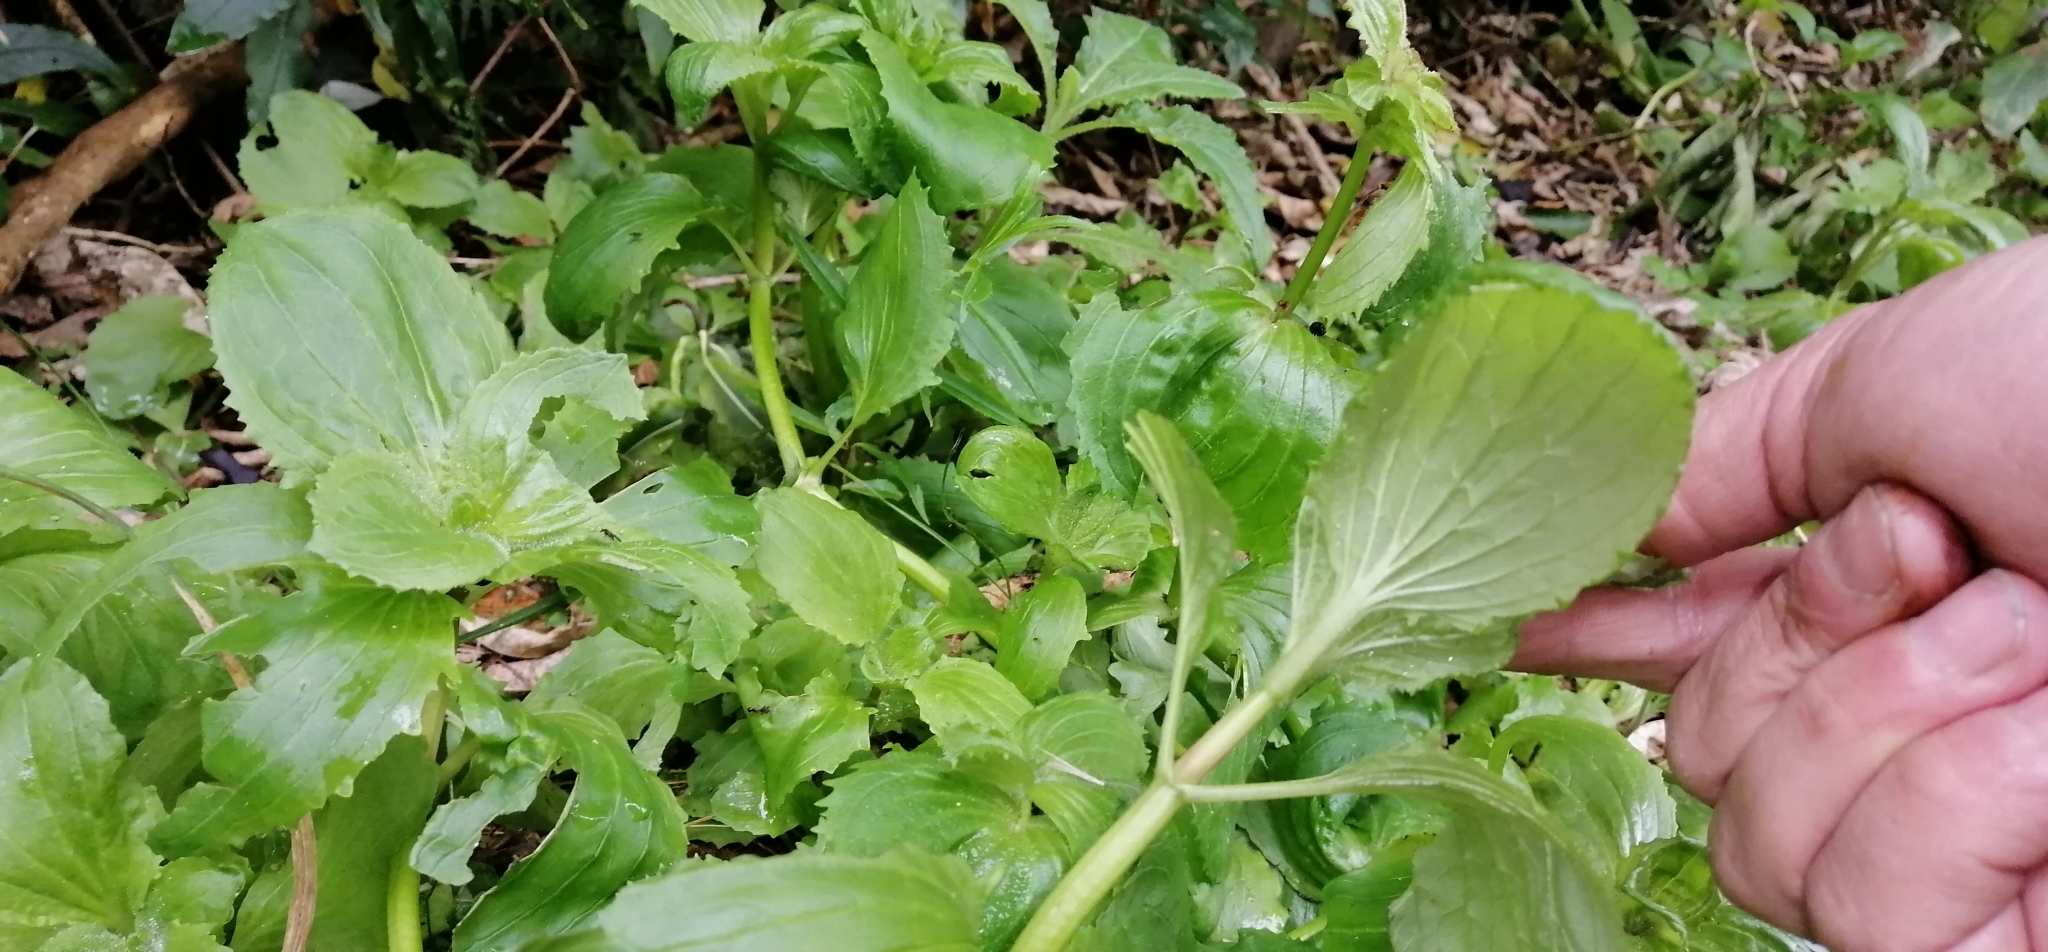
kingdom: Plantae
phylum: Tracheophyta
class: Magnoliopsida
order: Lamiales
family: Phrymaceae
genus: Erythranthe
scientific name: Erythranthe guttata
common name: Monkeyflower
